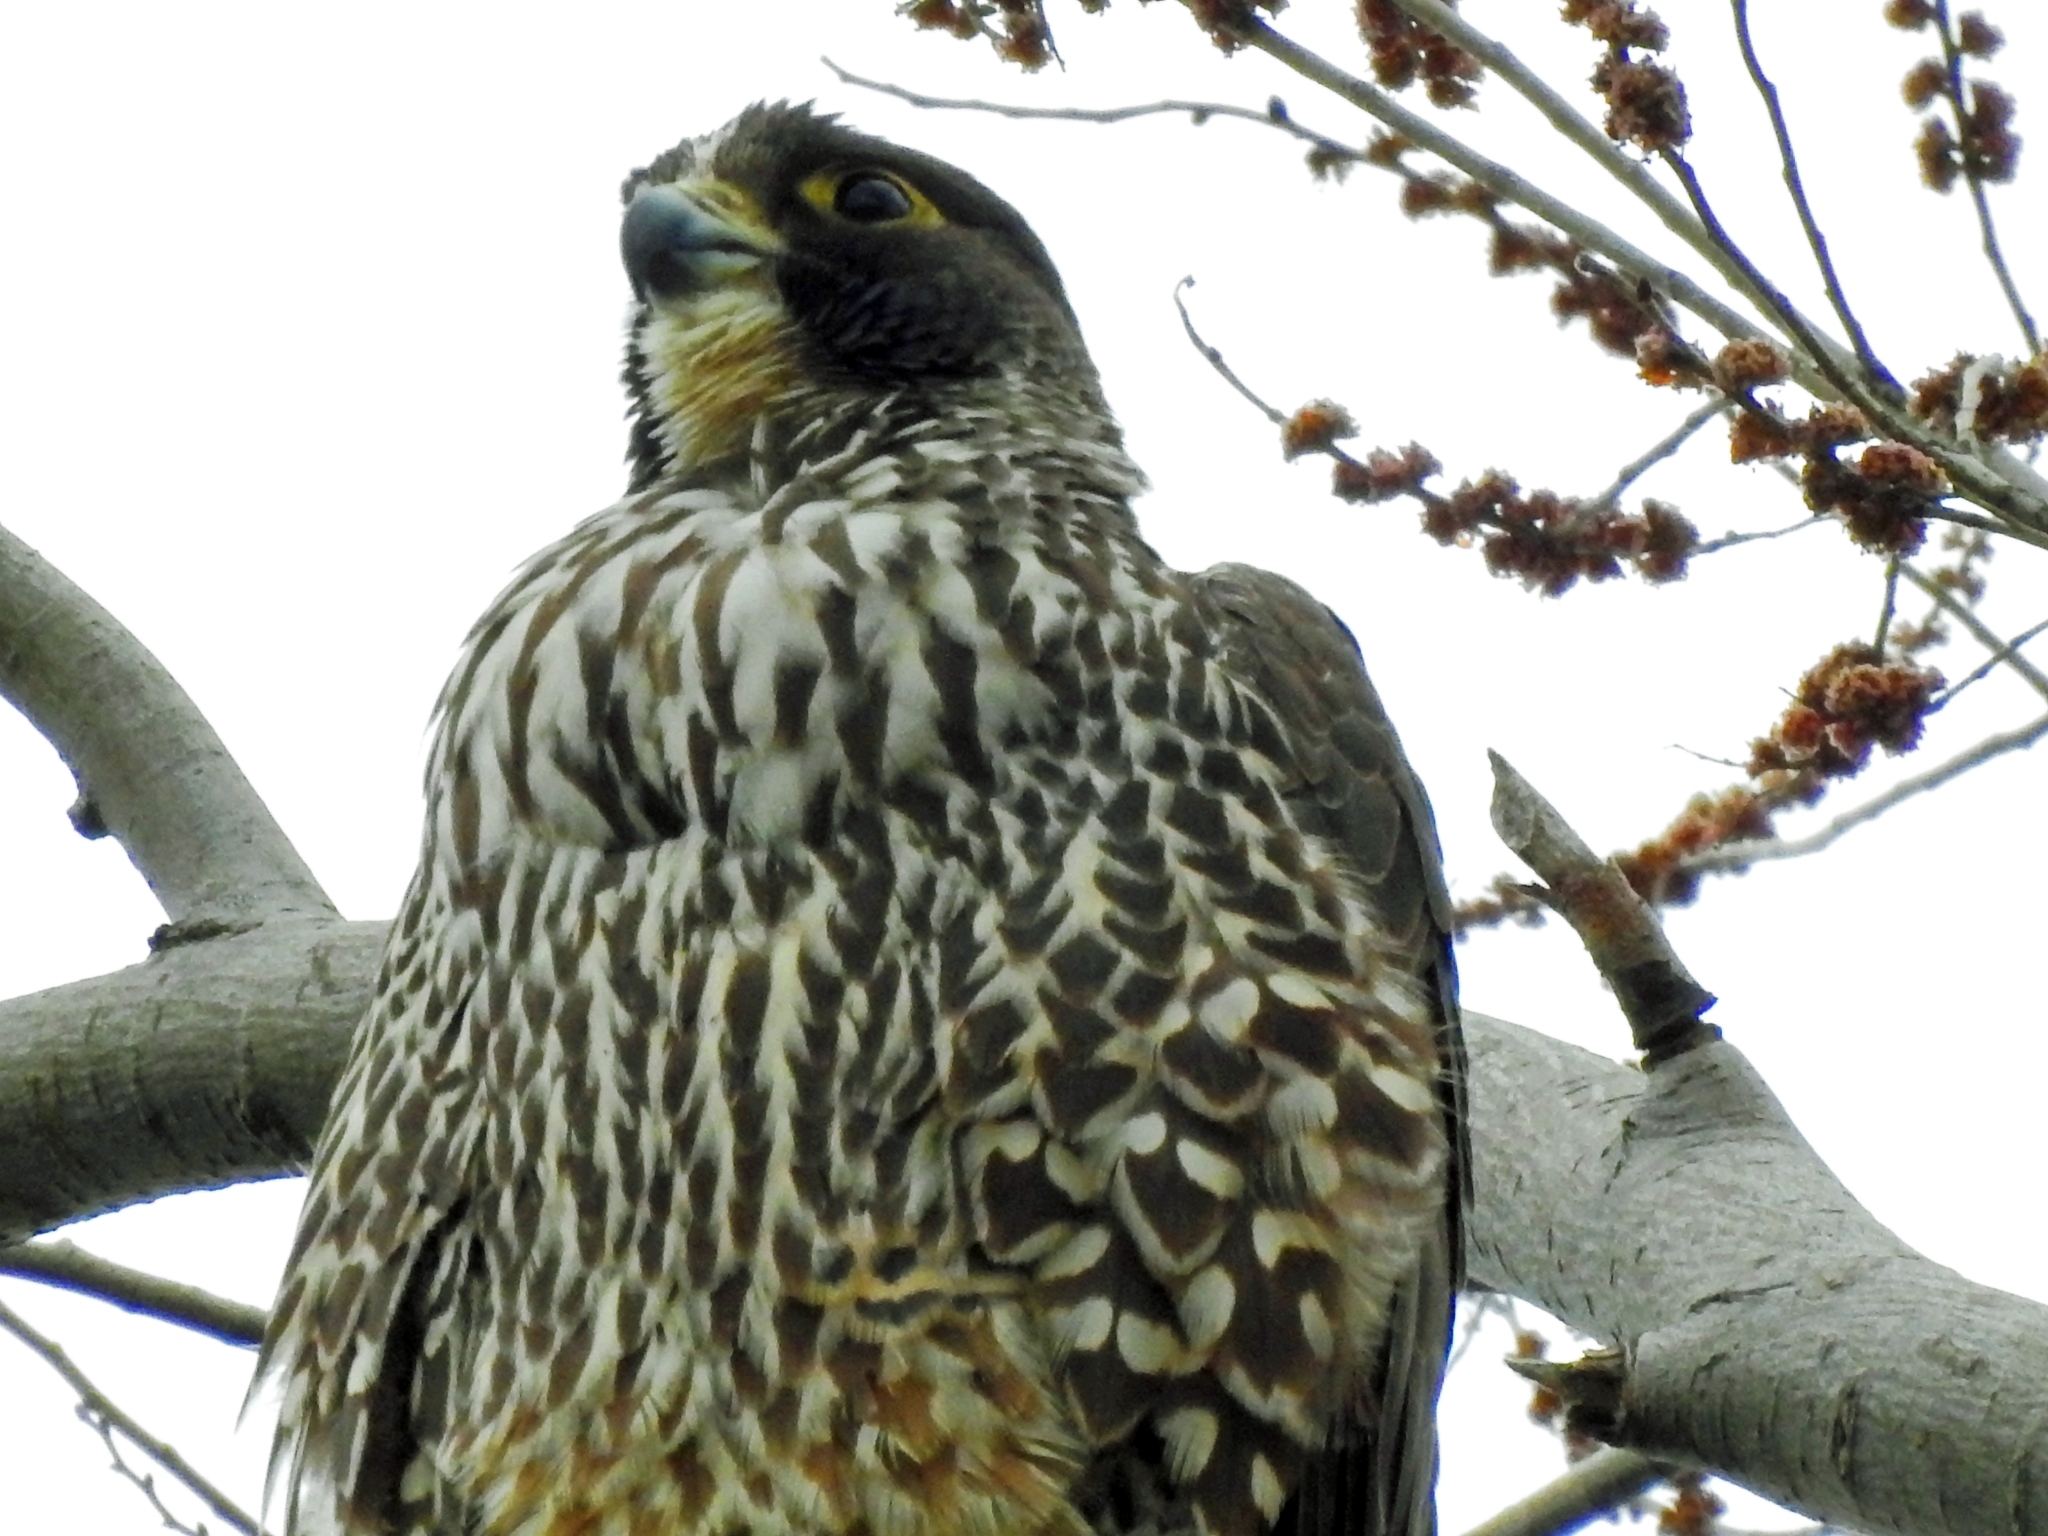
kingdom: Animalia
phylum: Chordata
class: Aves
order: Falconiformes
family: Falconidae
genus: Falco
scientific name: Falco peregrinus
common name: Peregrine falcon
